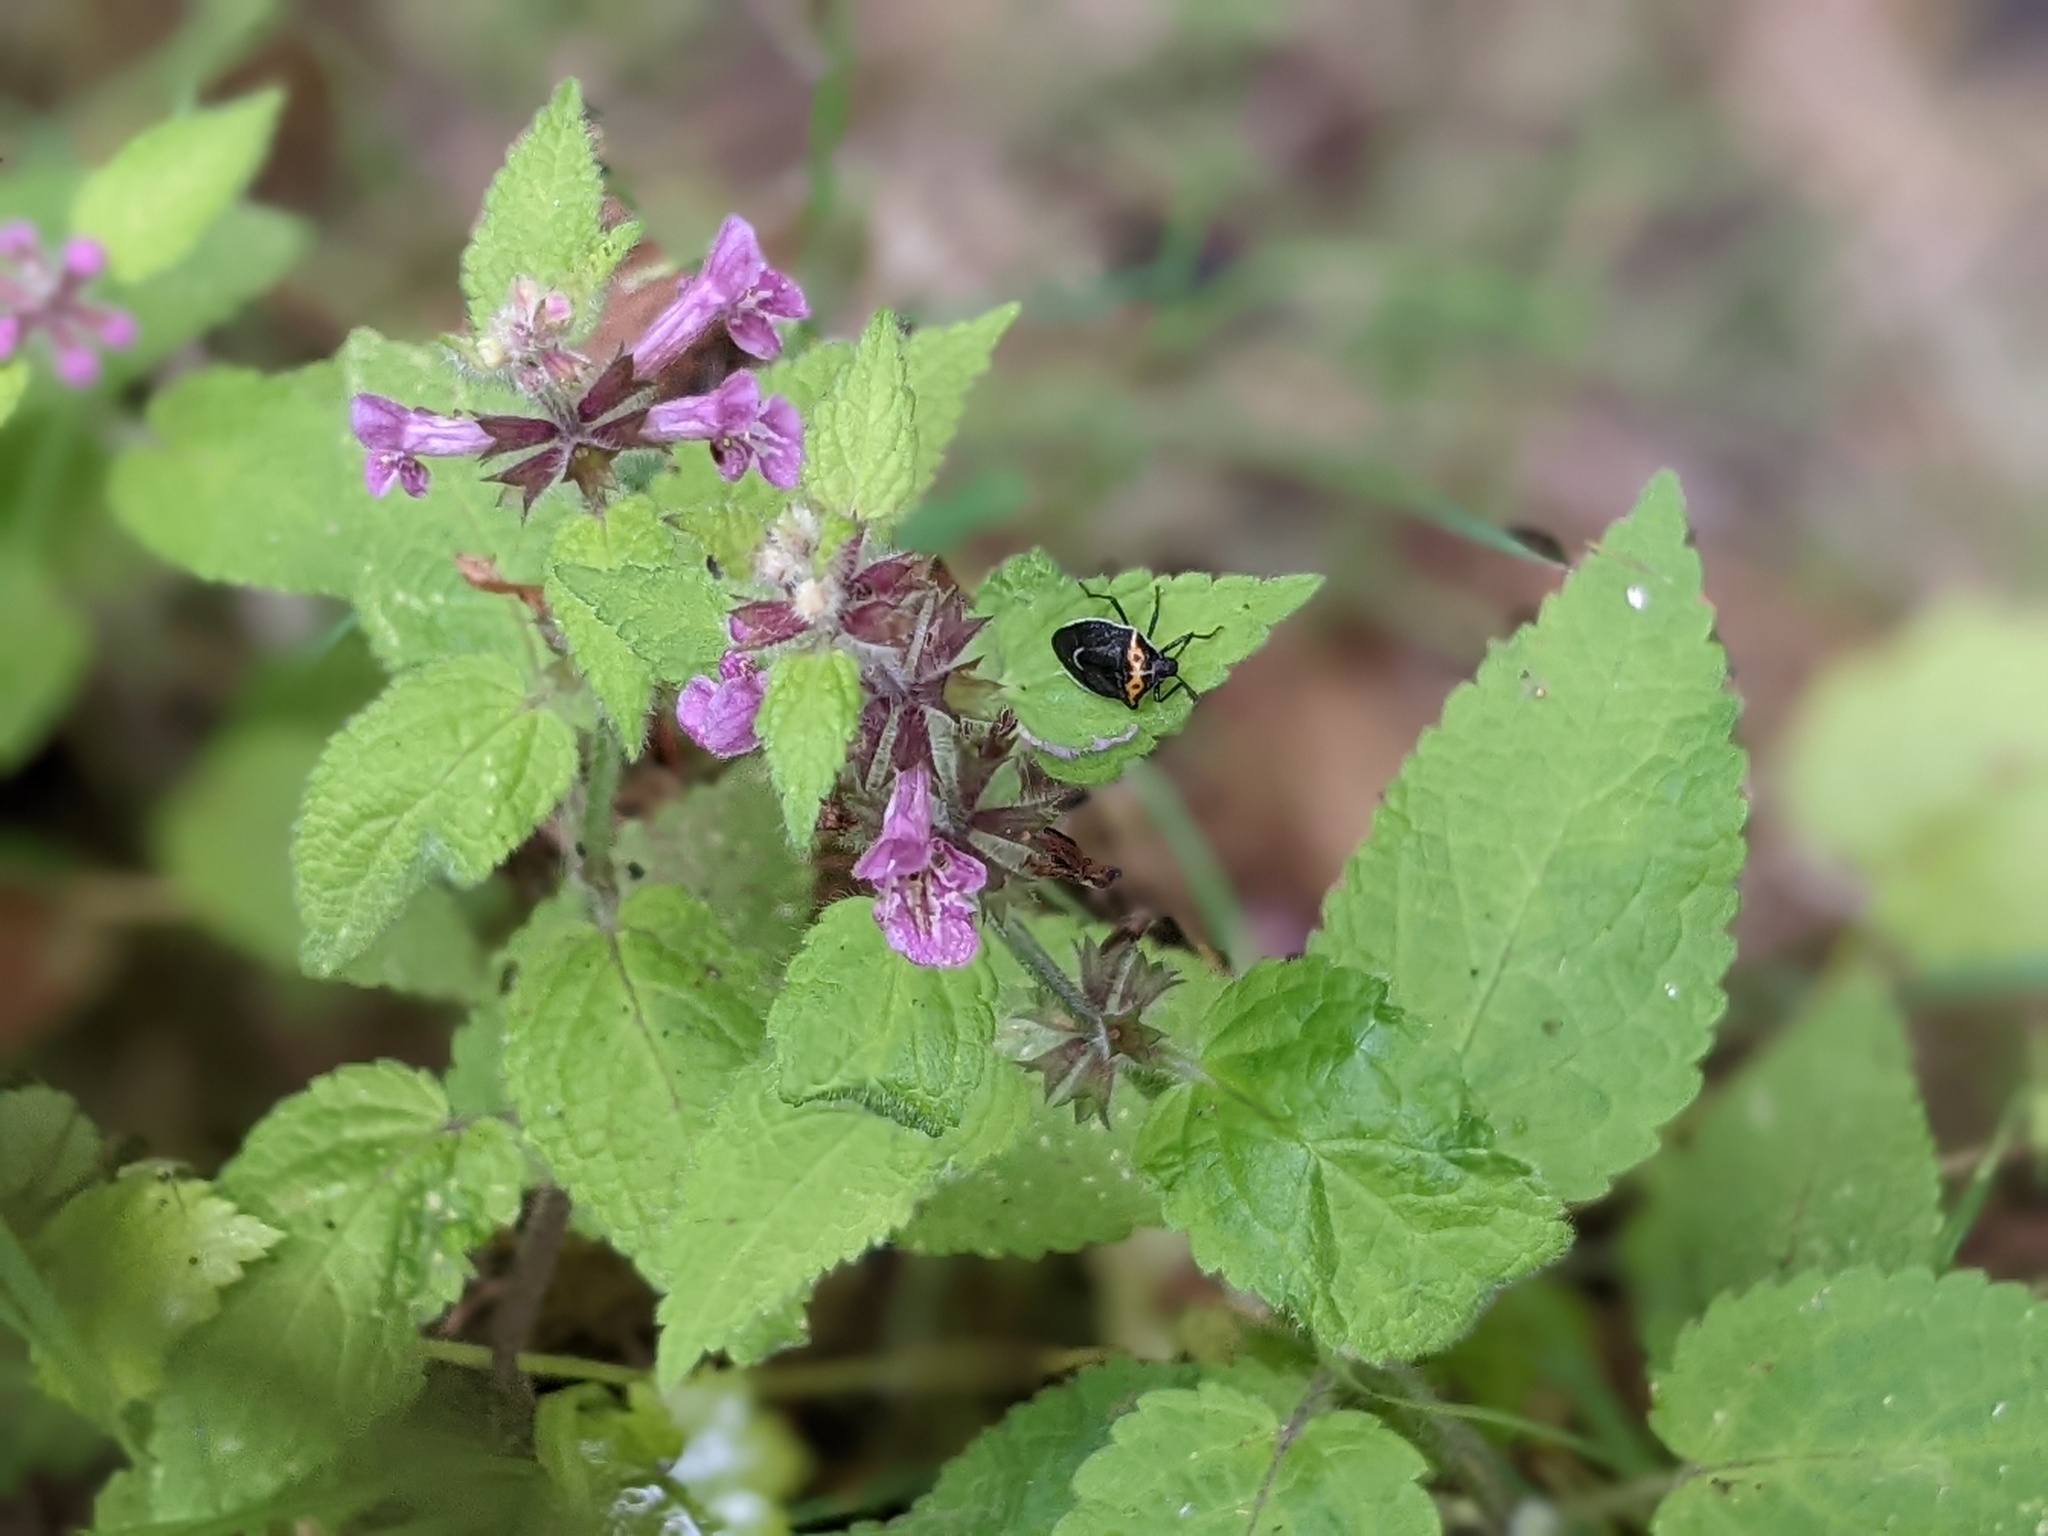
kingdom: Animalia
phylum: Arthropoda
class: Insecta
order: Hemiptera
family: Pentatomidae
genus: Cosmopepla
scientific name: Cosmopepla conspicillaris
